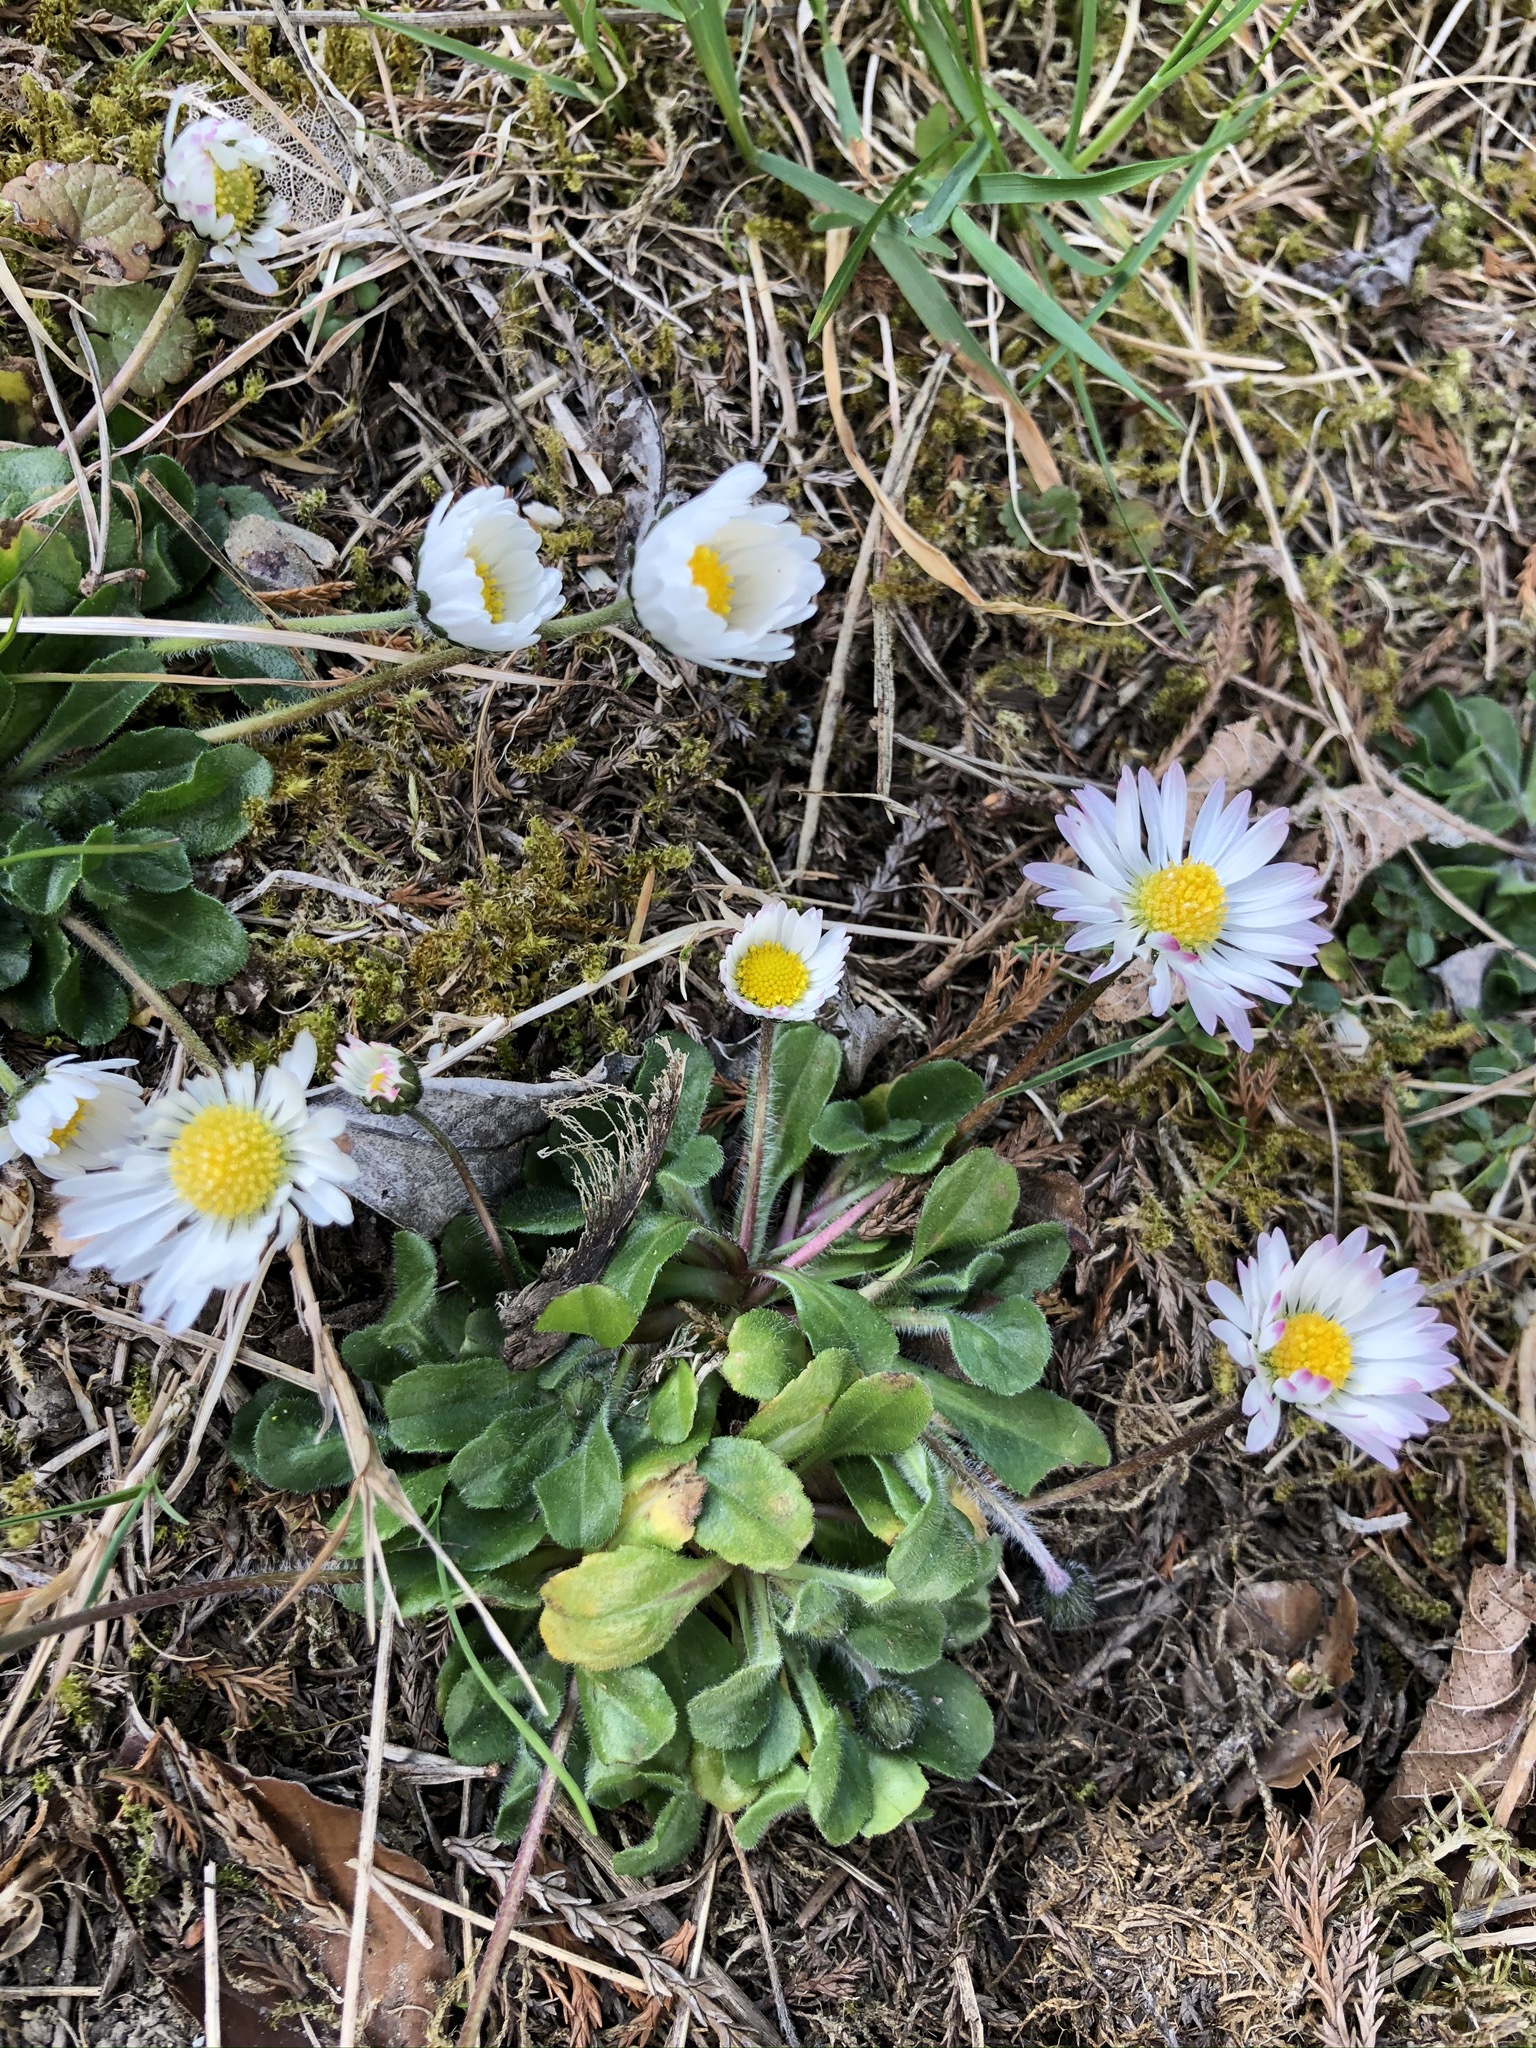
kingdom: Plantae
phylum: Tracheophyta
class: Magnoliopsida
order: Asterales
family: Asteraceae
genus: Bellis
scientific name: Bellis perennis
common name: Lawndaisy
